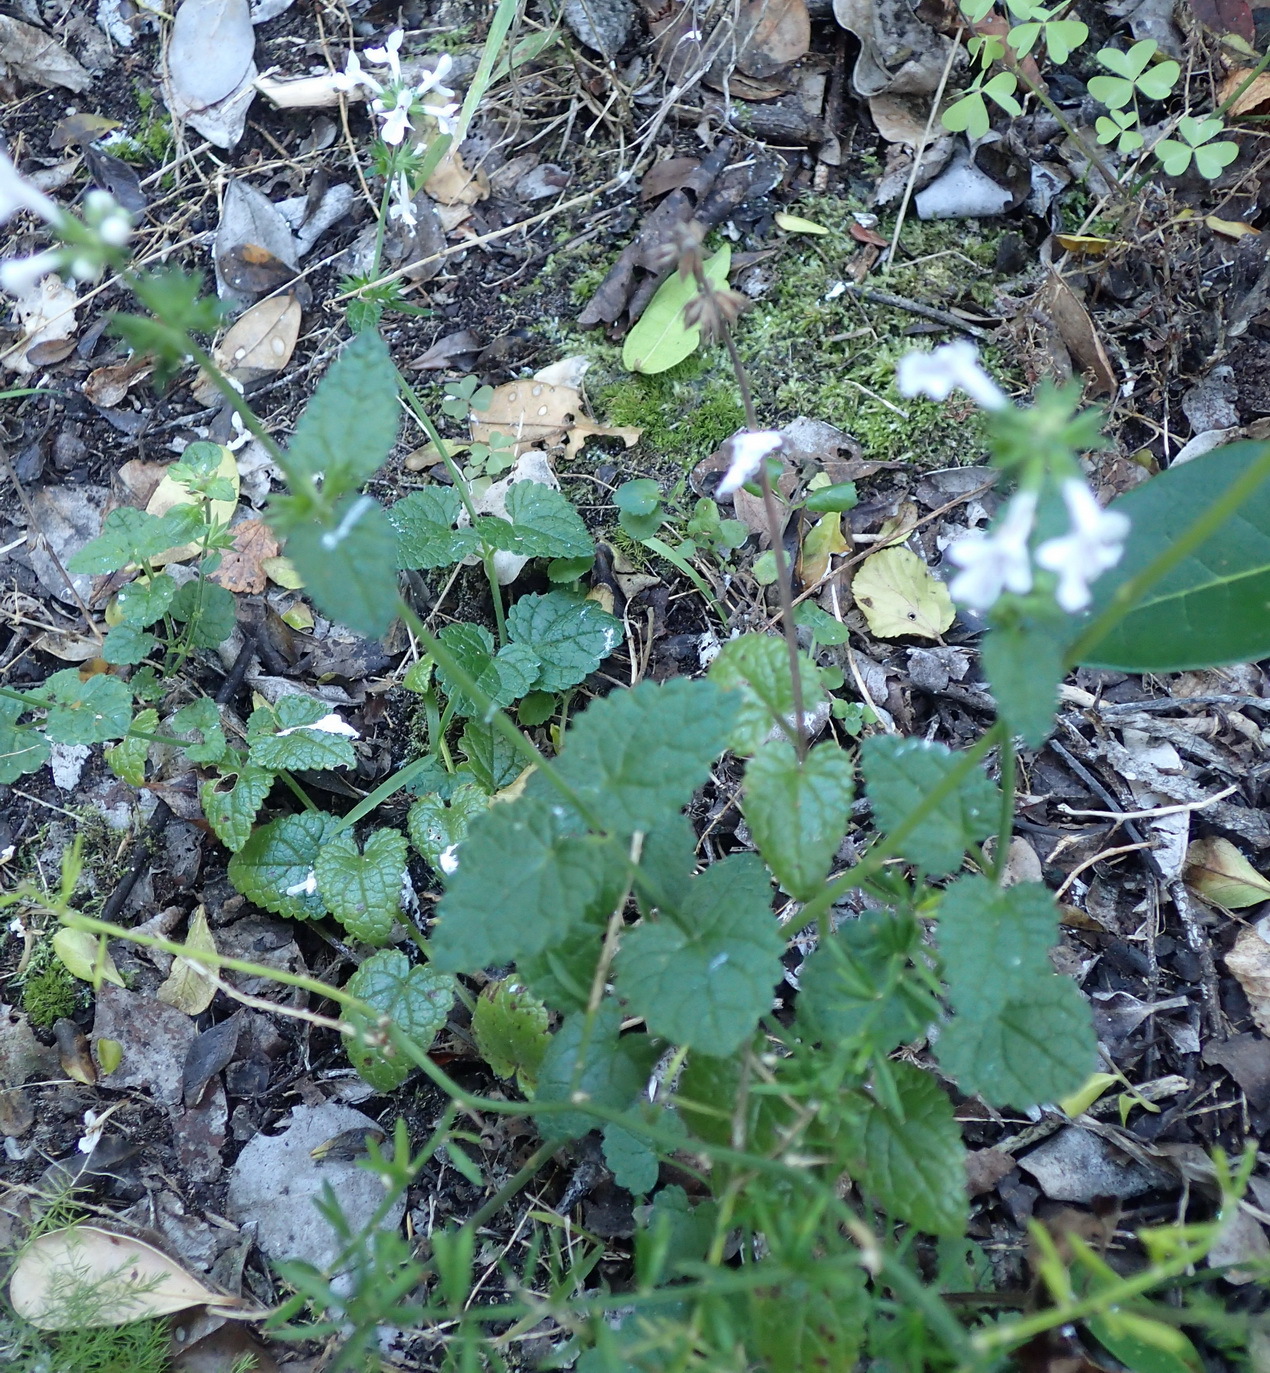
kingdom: Plantae
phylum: Tracheophyta
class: Magnoliopsida
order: Lamiales
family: Lamiaceae
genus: Stachys
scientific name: Stachys aethiopica
